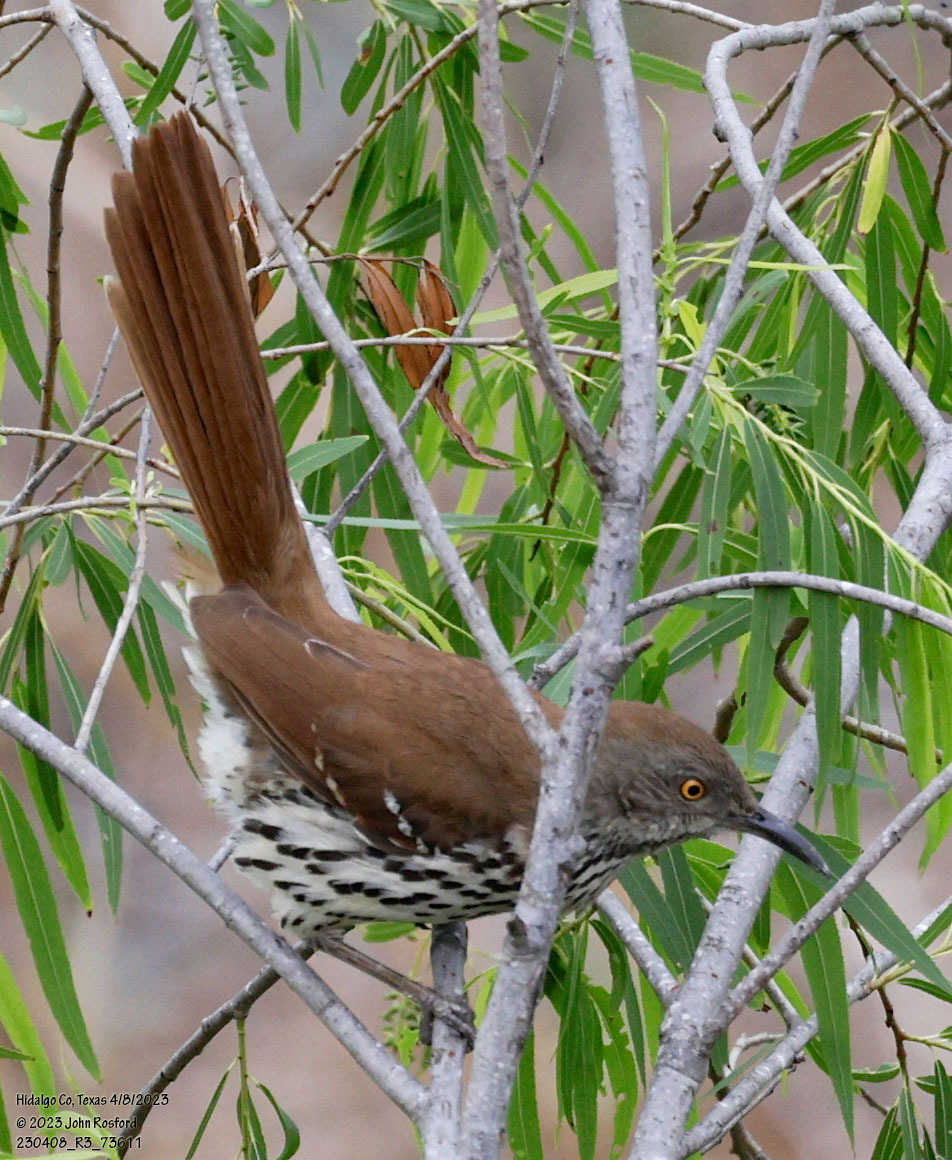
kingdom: Animalia
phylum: Chordata
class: Aves
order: Passeriformes
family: Mimidae
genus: Toxostoma
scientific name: Toxostoma longirostre
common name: Long-billed thrasher
